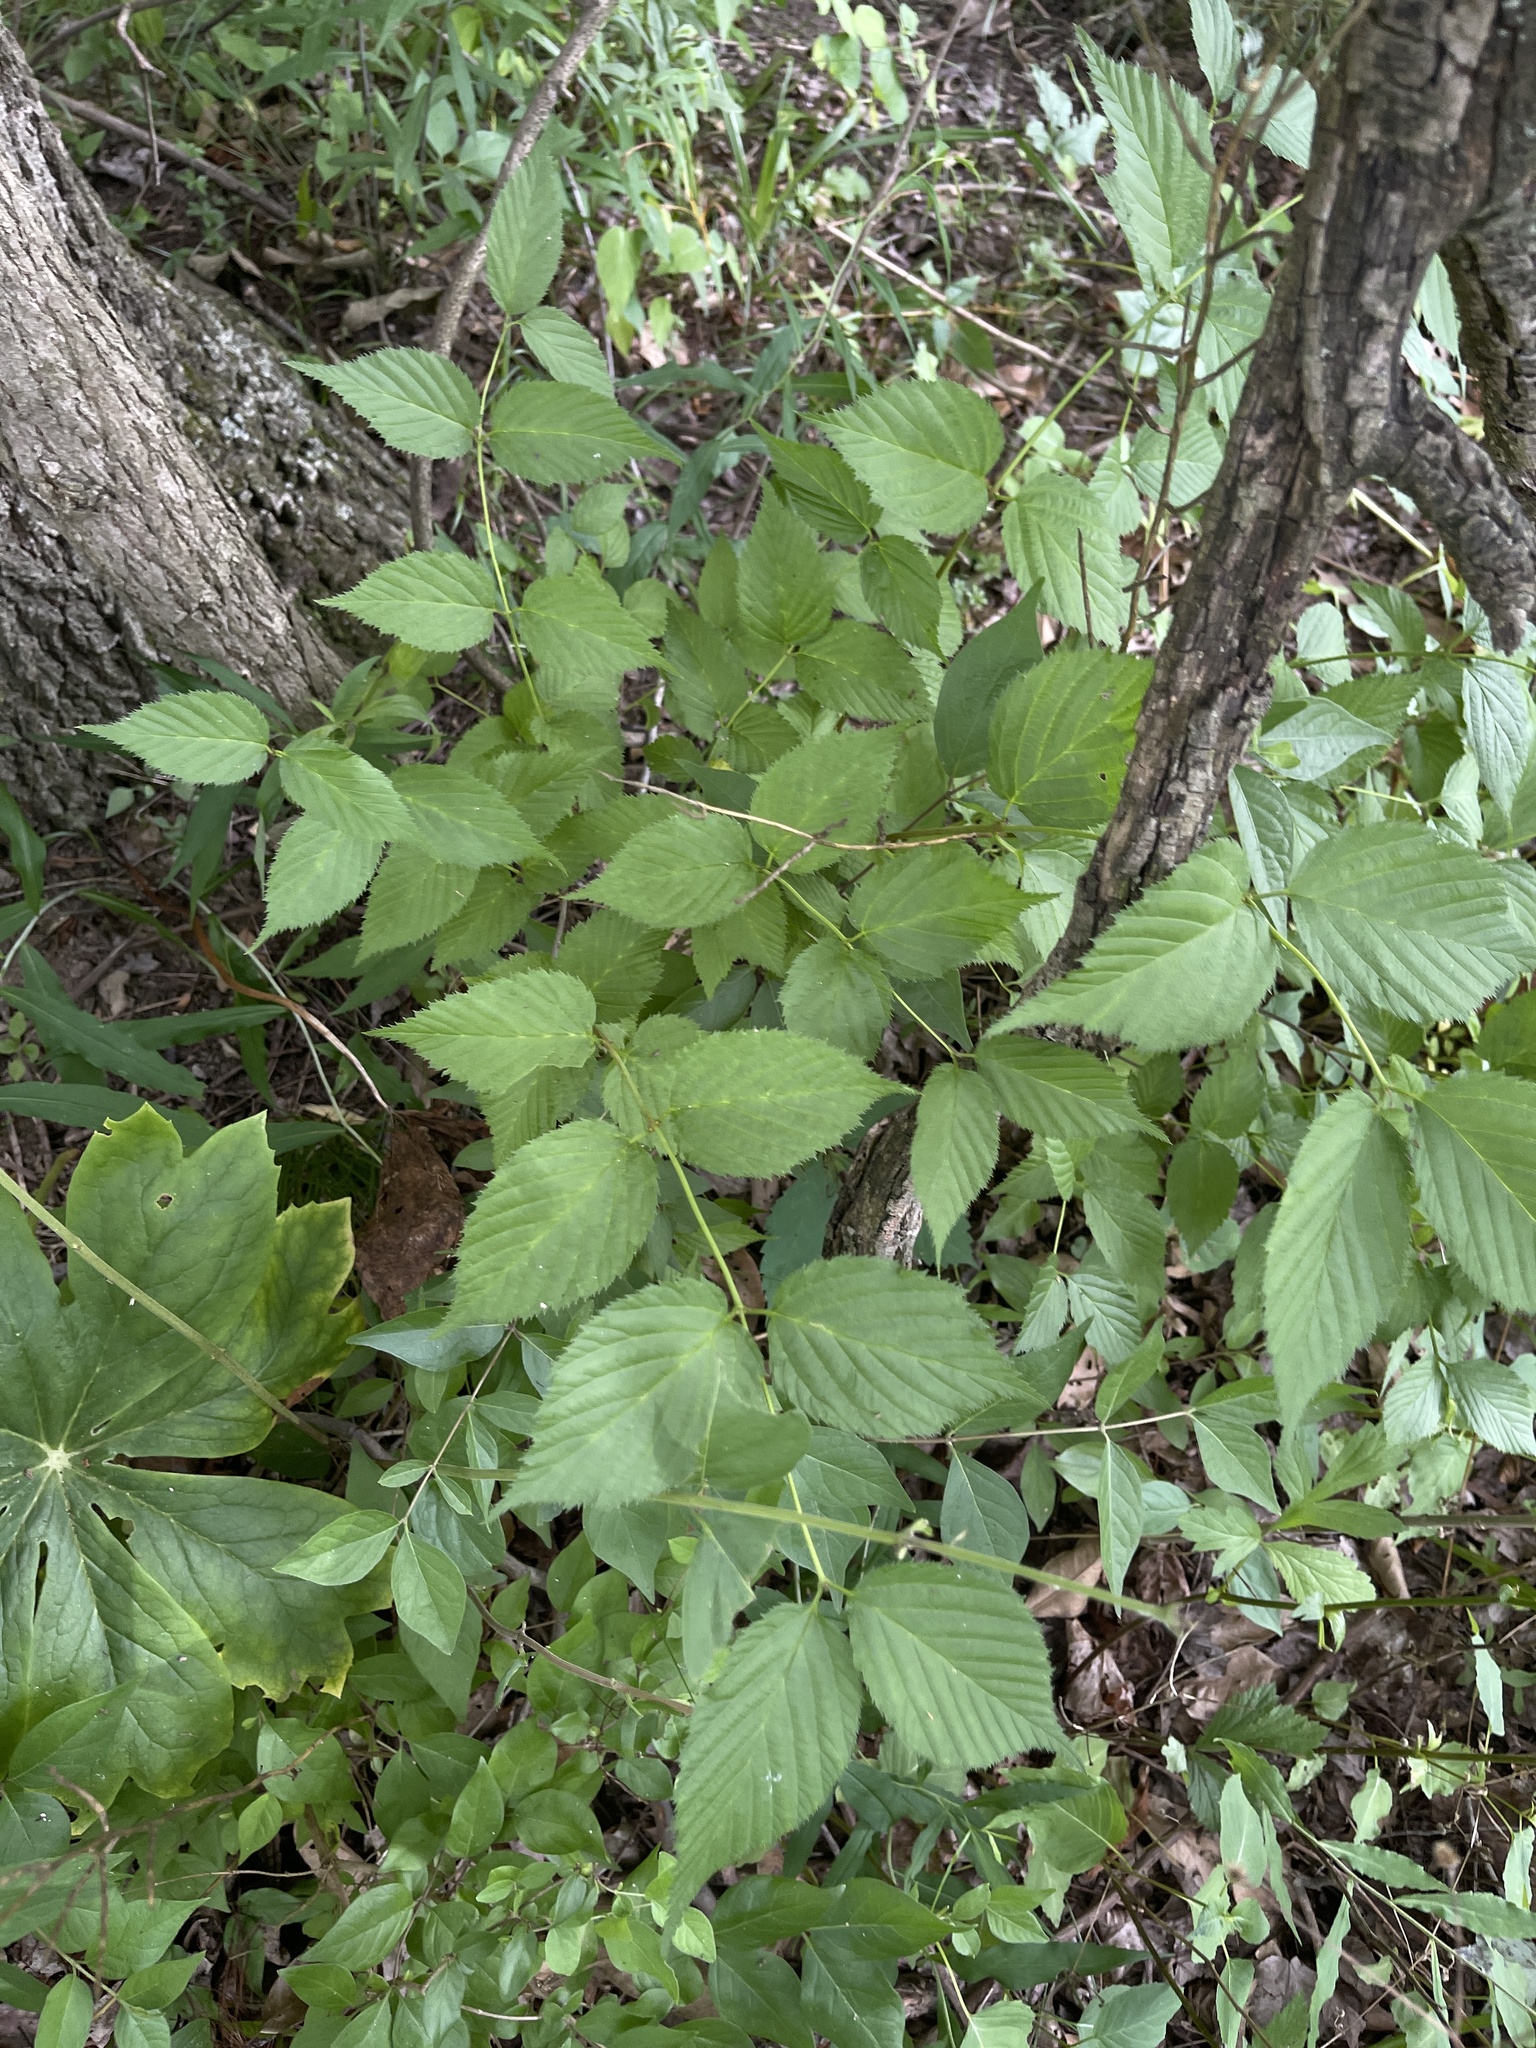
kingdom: Plantae
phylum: Tracheophyta
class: Magnoliopsida
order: Rosales
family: Rosaceae
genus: Rhodotypos
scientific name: Rhodotypos scandens
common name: Jetbead
